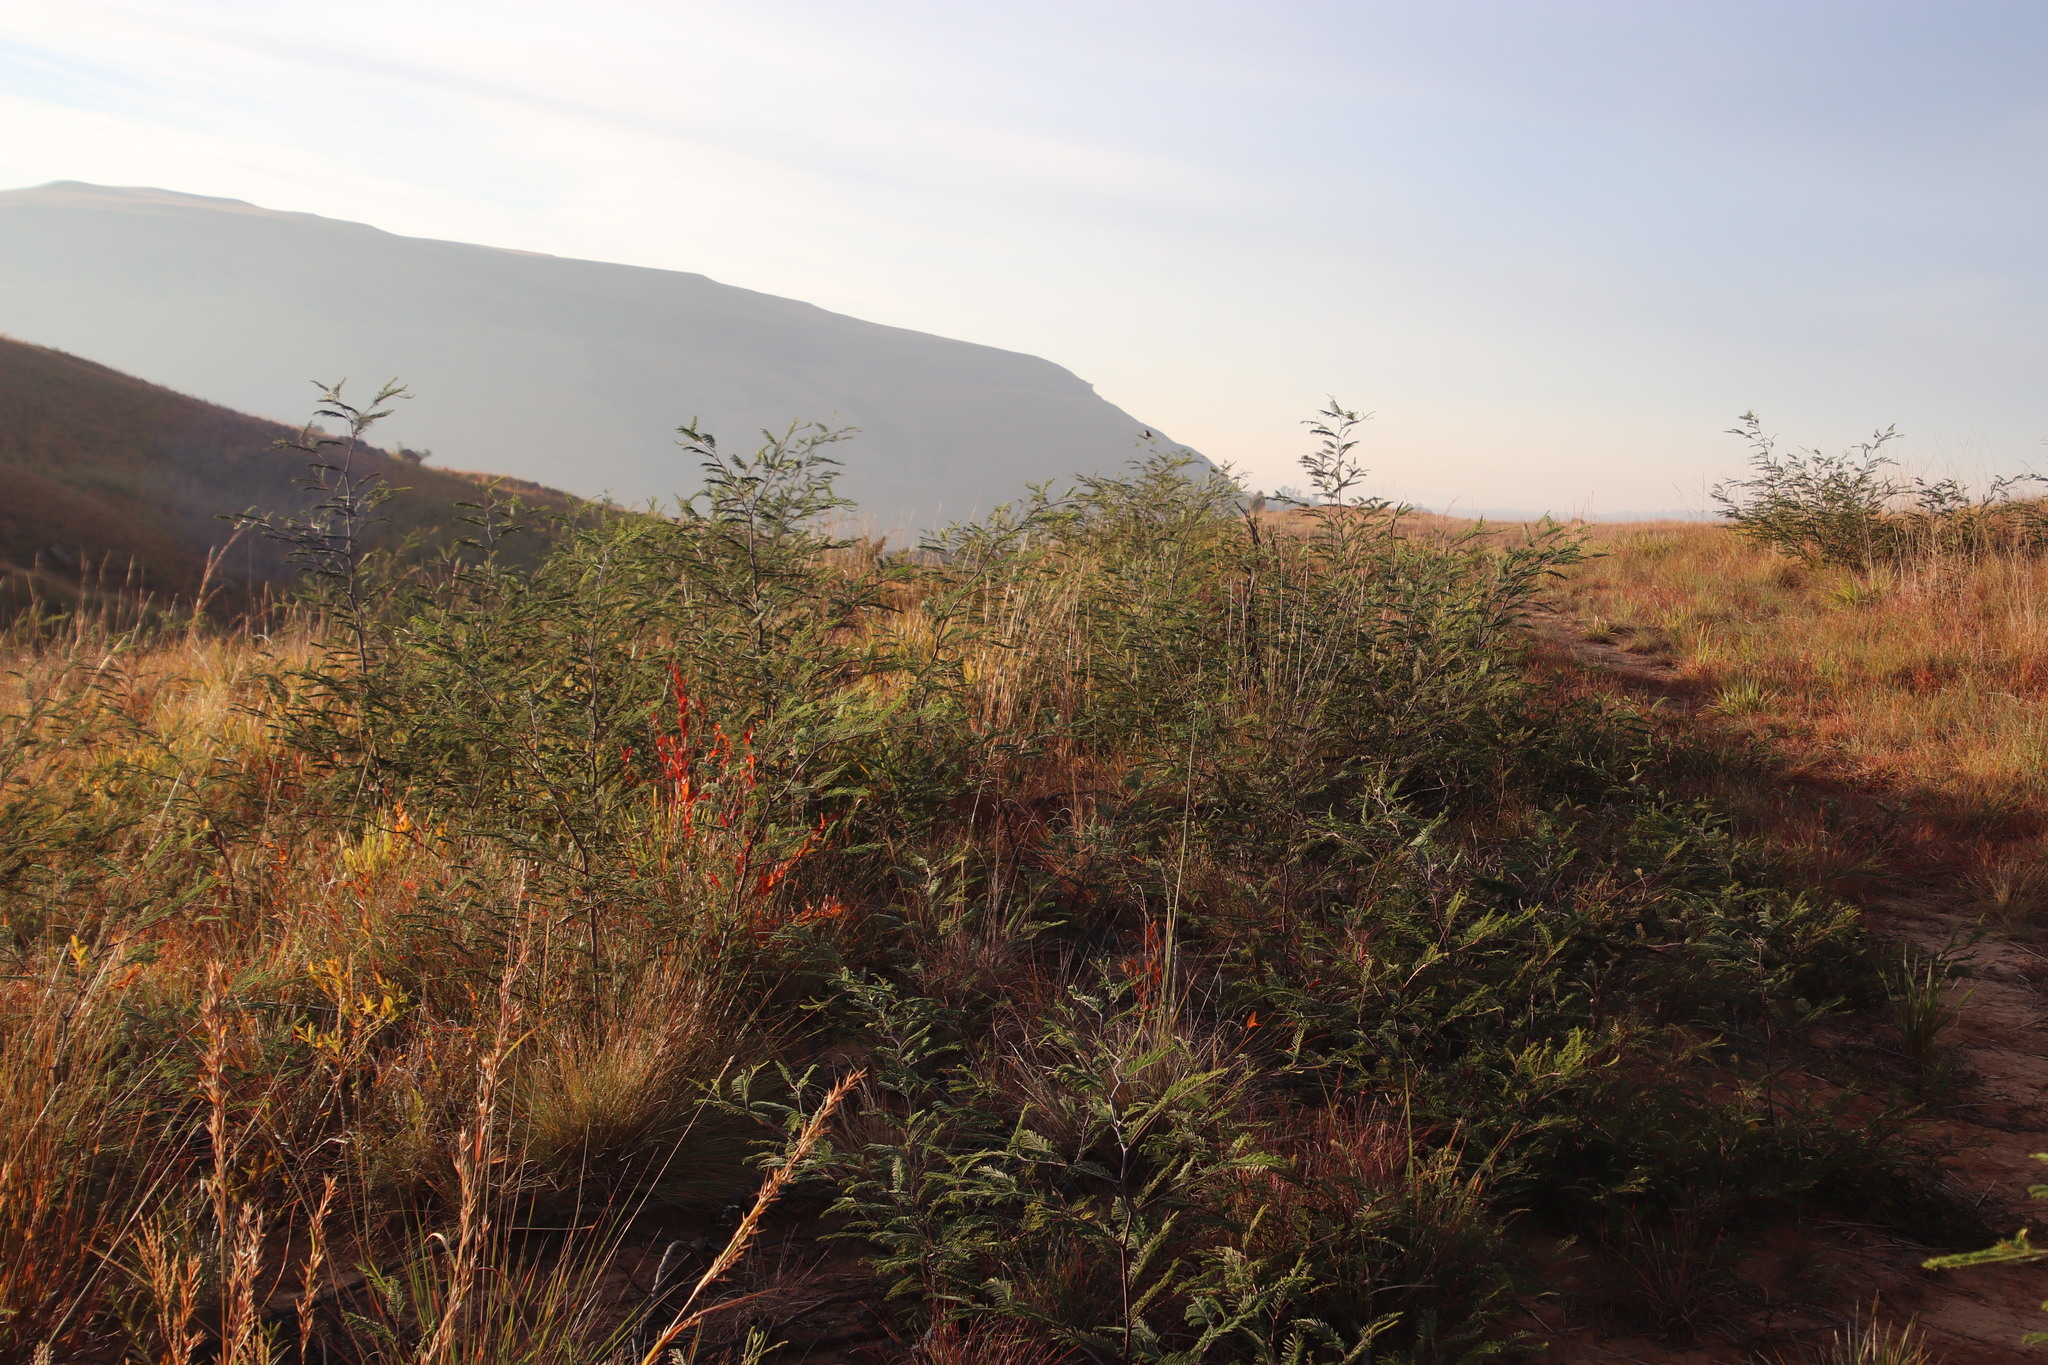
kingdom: Plantae
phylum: Tracheophyta
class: Magnoliopsida
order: Fabales
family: Fabaceae
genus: Acacia
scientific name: Acacia dealbata
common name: Silver wattle
